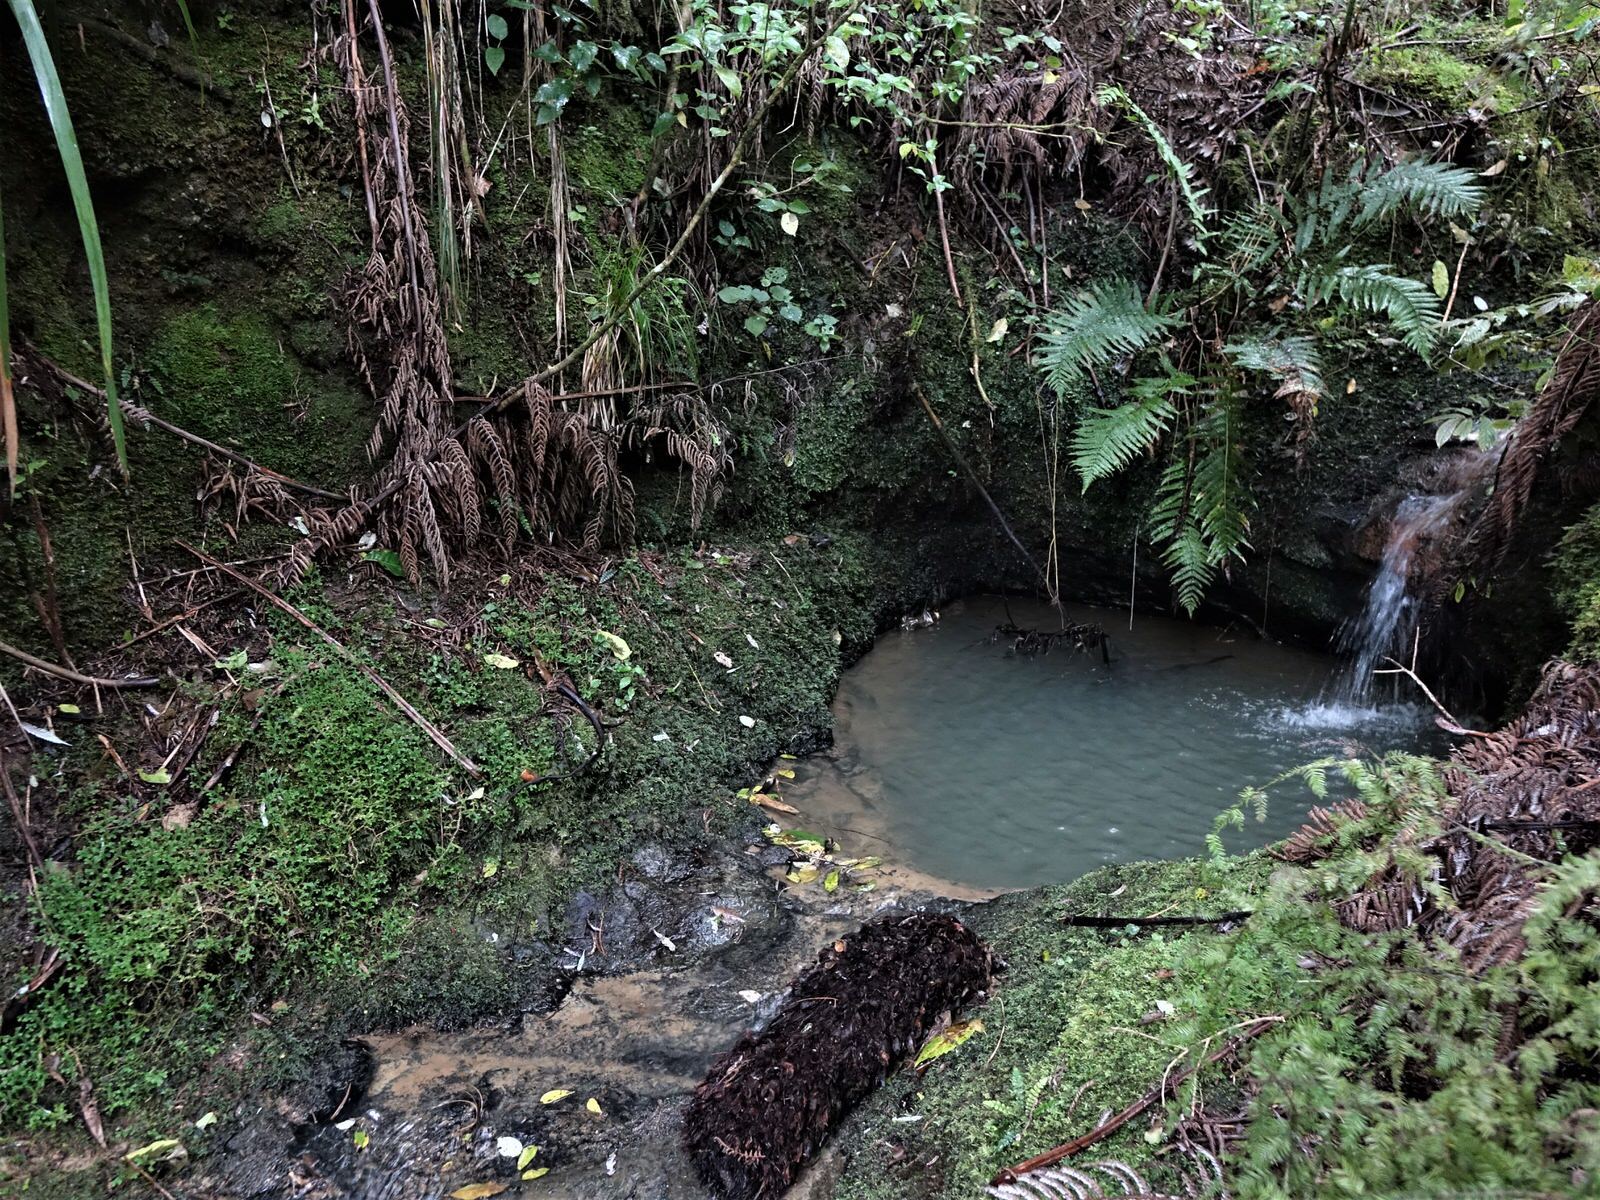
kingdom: Plantae
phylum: Tracheophyta
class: Polypodiopsida
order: Hymenophyllales
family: Hymenophyllaceae
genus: Abrodictyum
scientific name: Abrodictyum elongatum
